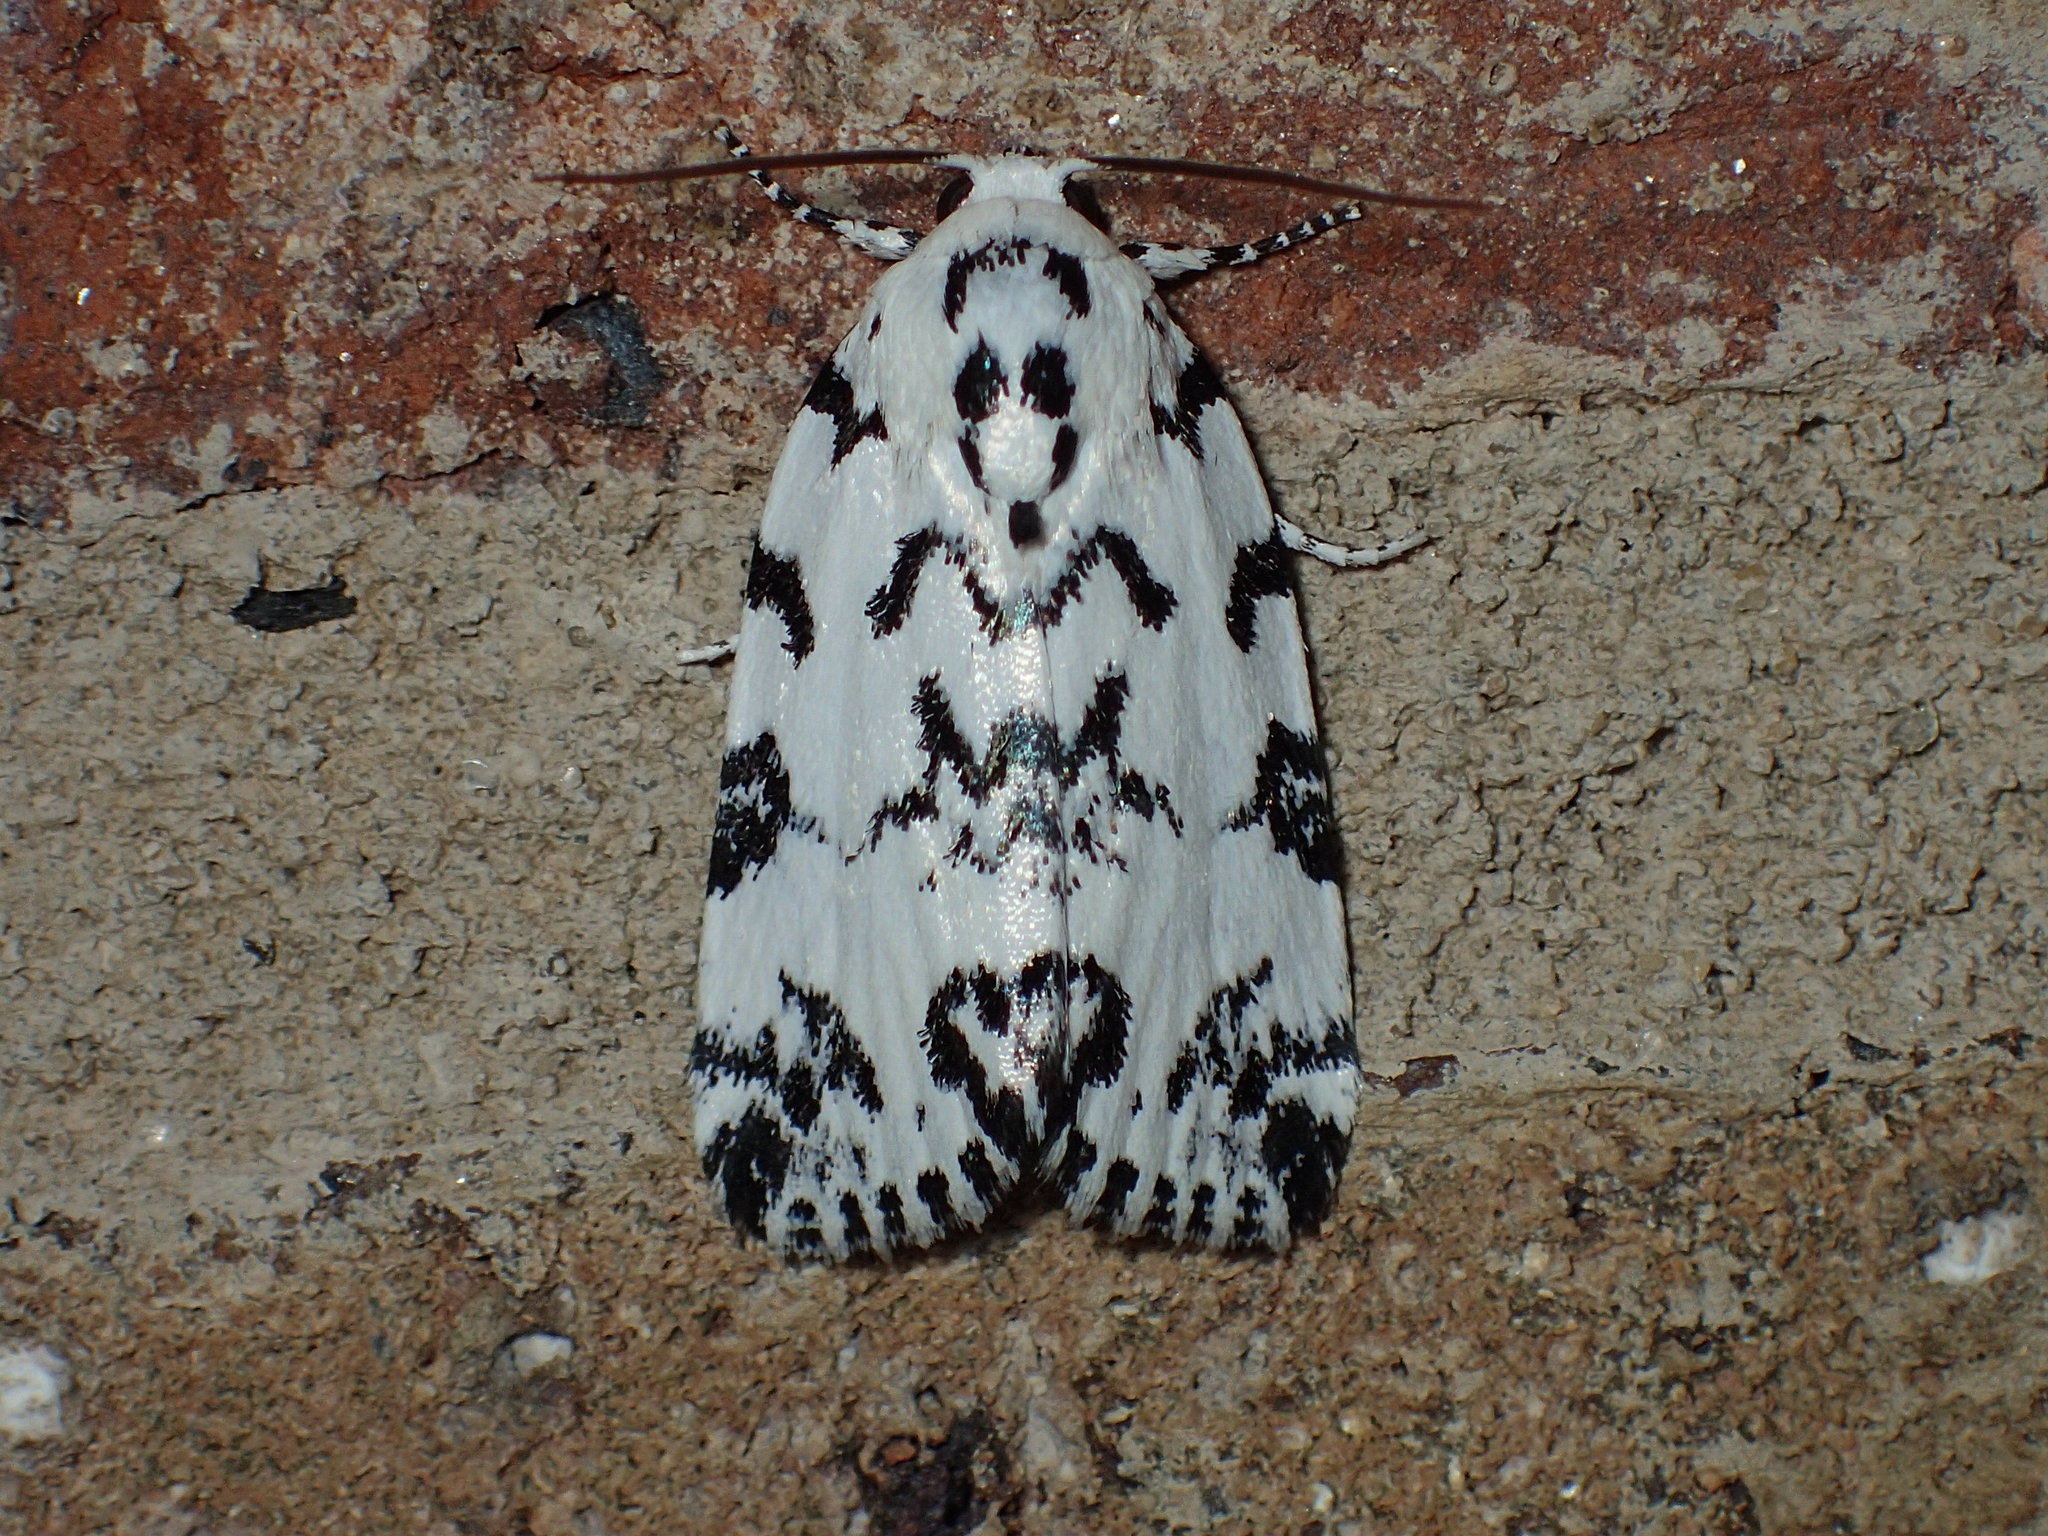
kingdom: Animalia
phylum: Arthropoda
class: Insecta
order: Lepidoptera
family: Noctuidae
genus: Polygrammate
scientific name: Polygrammate hebraeicum
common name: Hebrew moth
